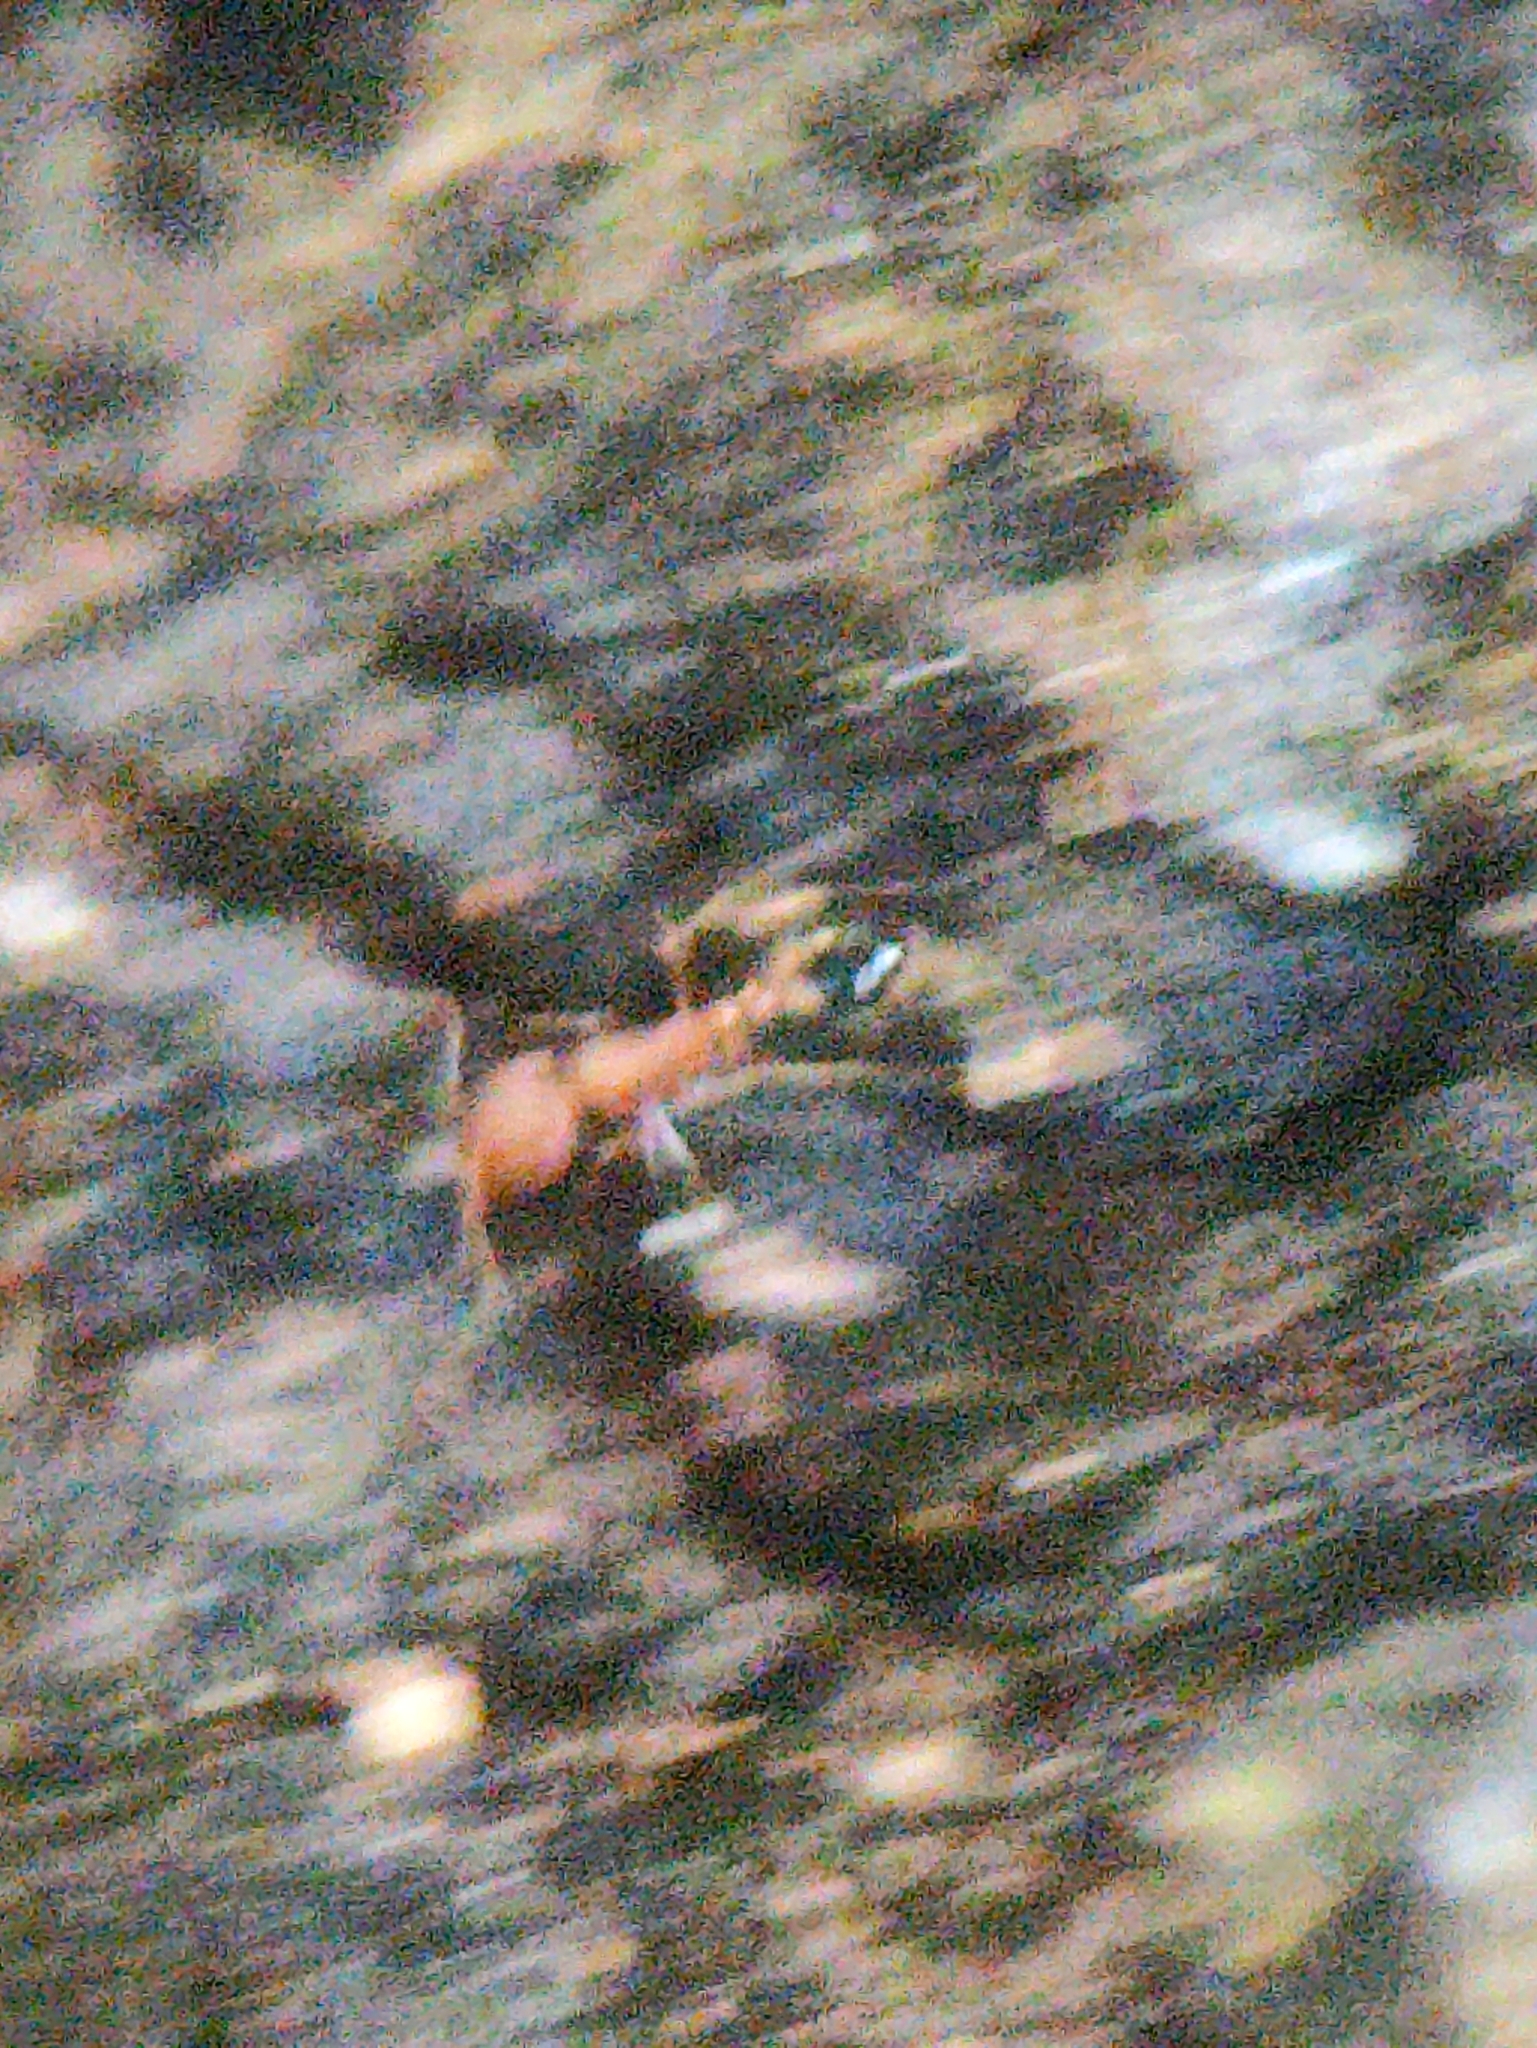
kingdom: Animalia
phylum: Arthropoda
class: Insecta
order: Hymenoptera
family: Formicidae
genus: Monomorium
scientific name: Monomorium sahlbergi
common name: Ant
